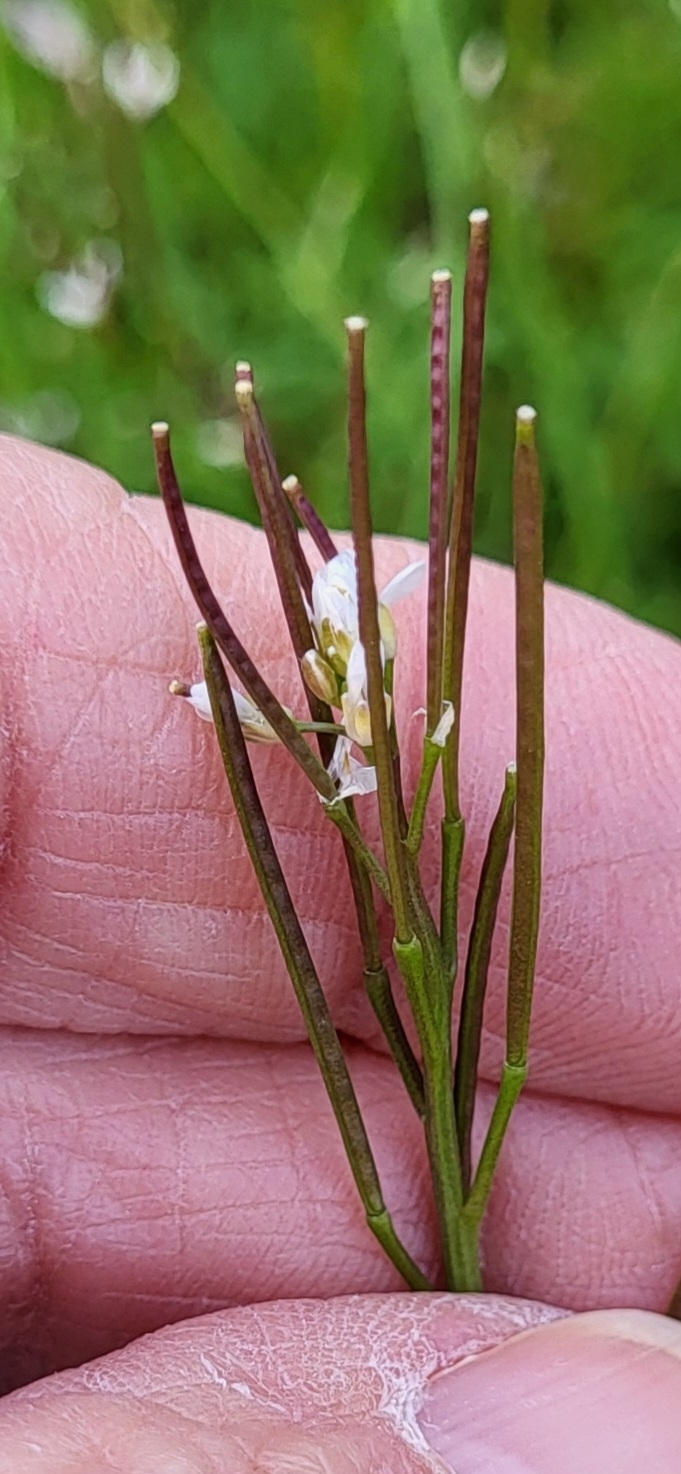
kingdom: Plantae
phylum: Tracheophyta
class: Magnoliopsida
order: Brassicales
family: Brassicaceae
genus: Cardamine
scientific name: Cardamine hirsuta
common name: Hairy bittercress
